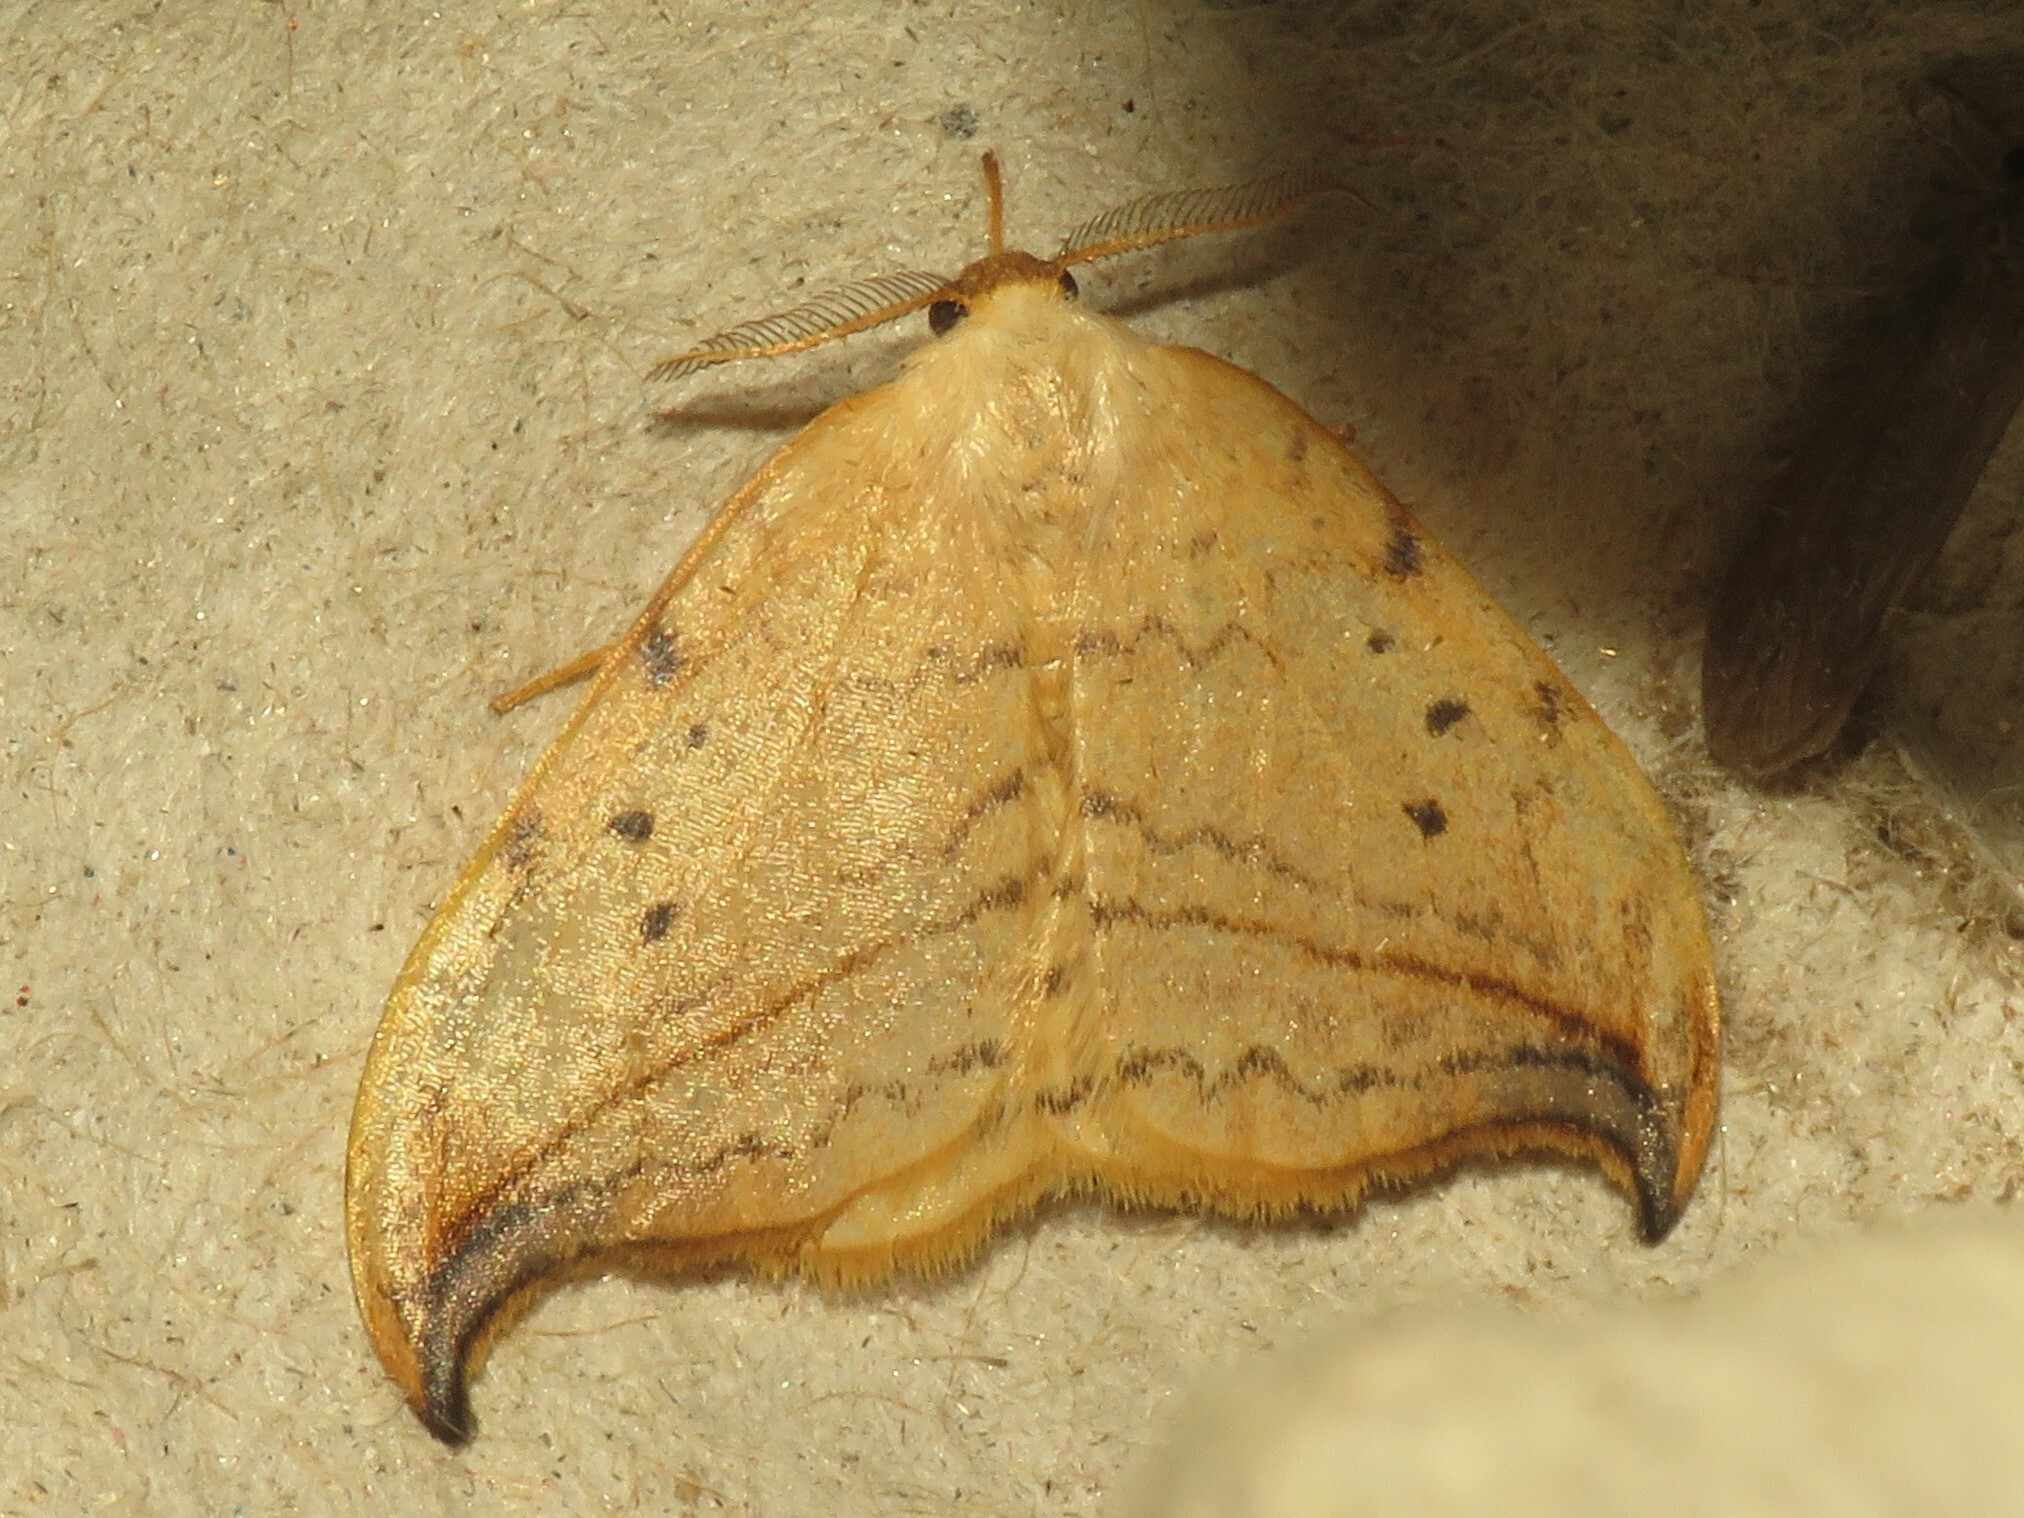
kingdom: Animalia
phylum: Arthropoda
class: Insecta
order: Lepidoptera
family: Drepanidae
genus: Drepana
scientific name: Drepana arcuata
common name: Arched hooktip moth
